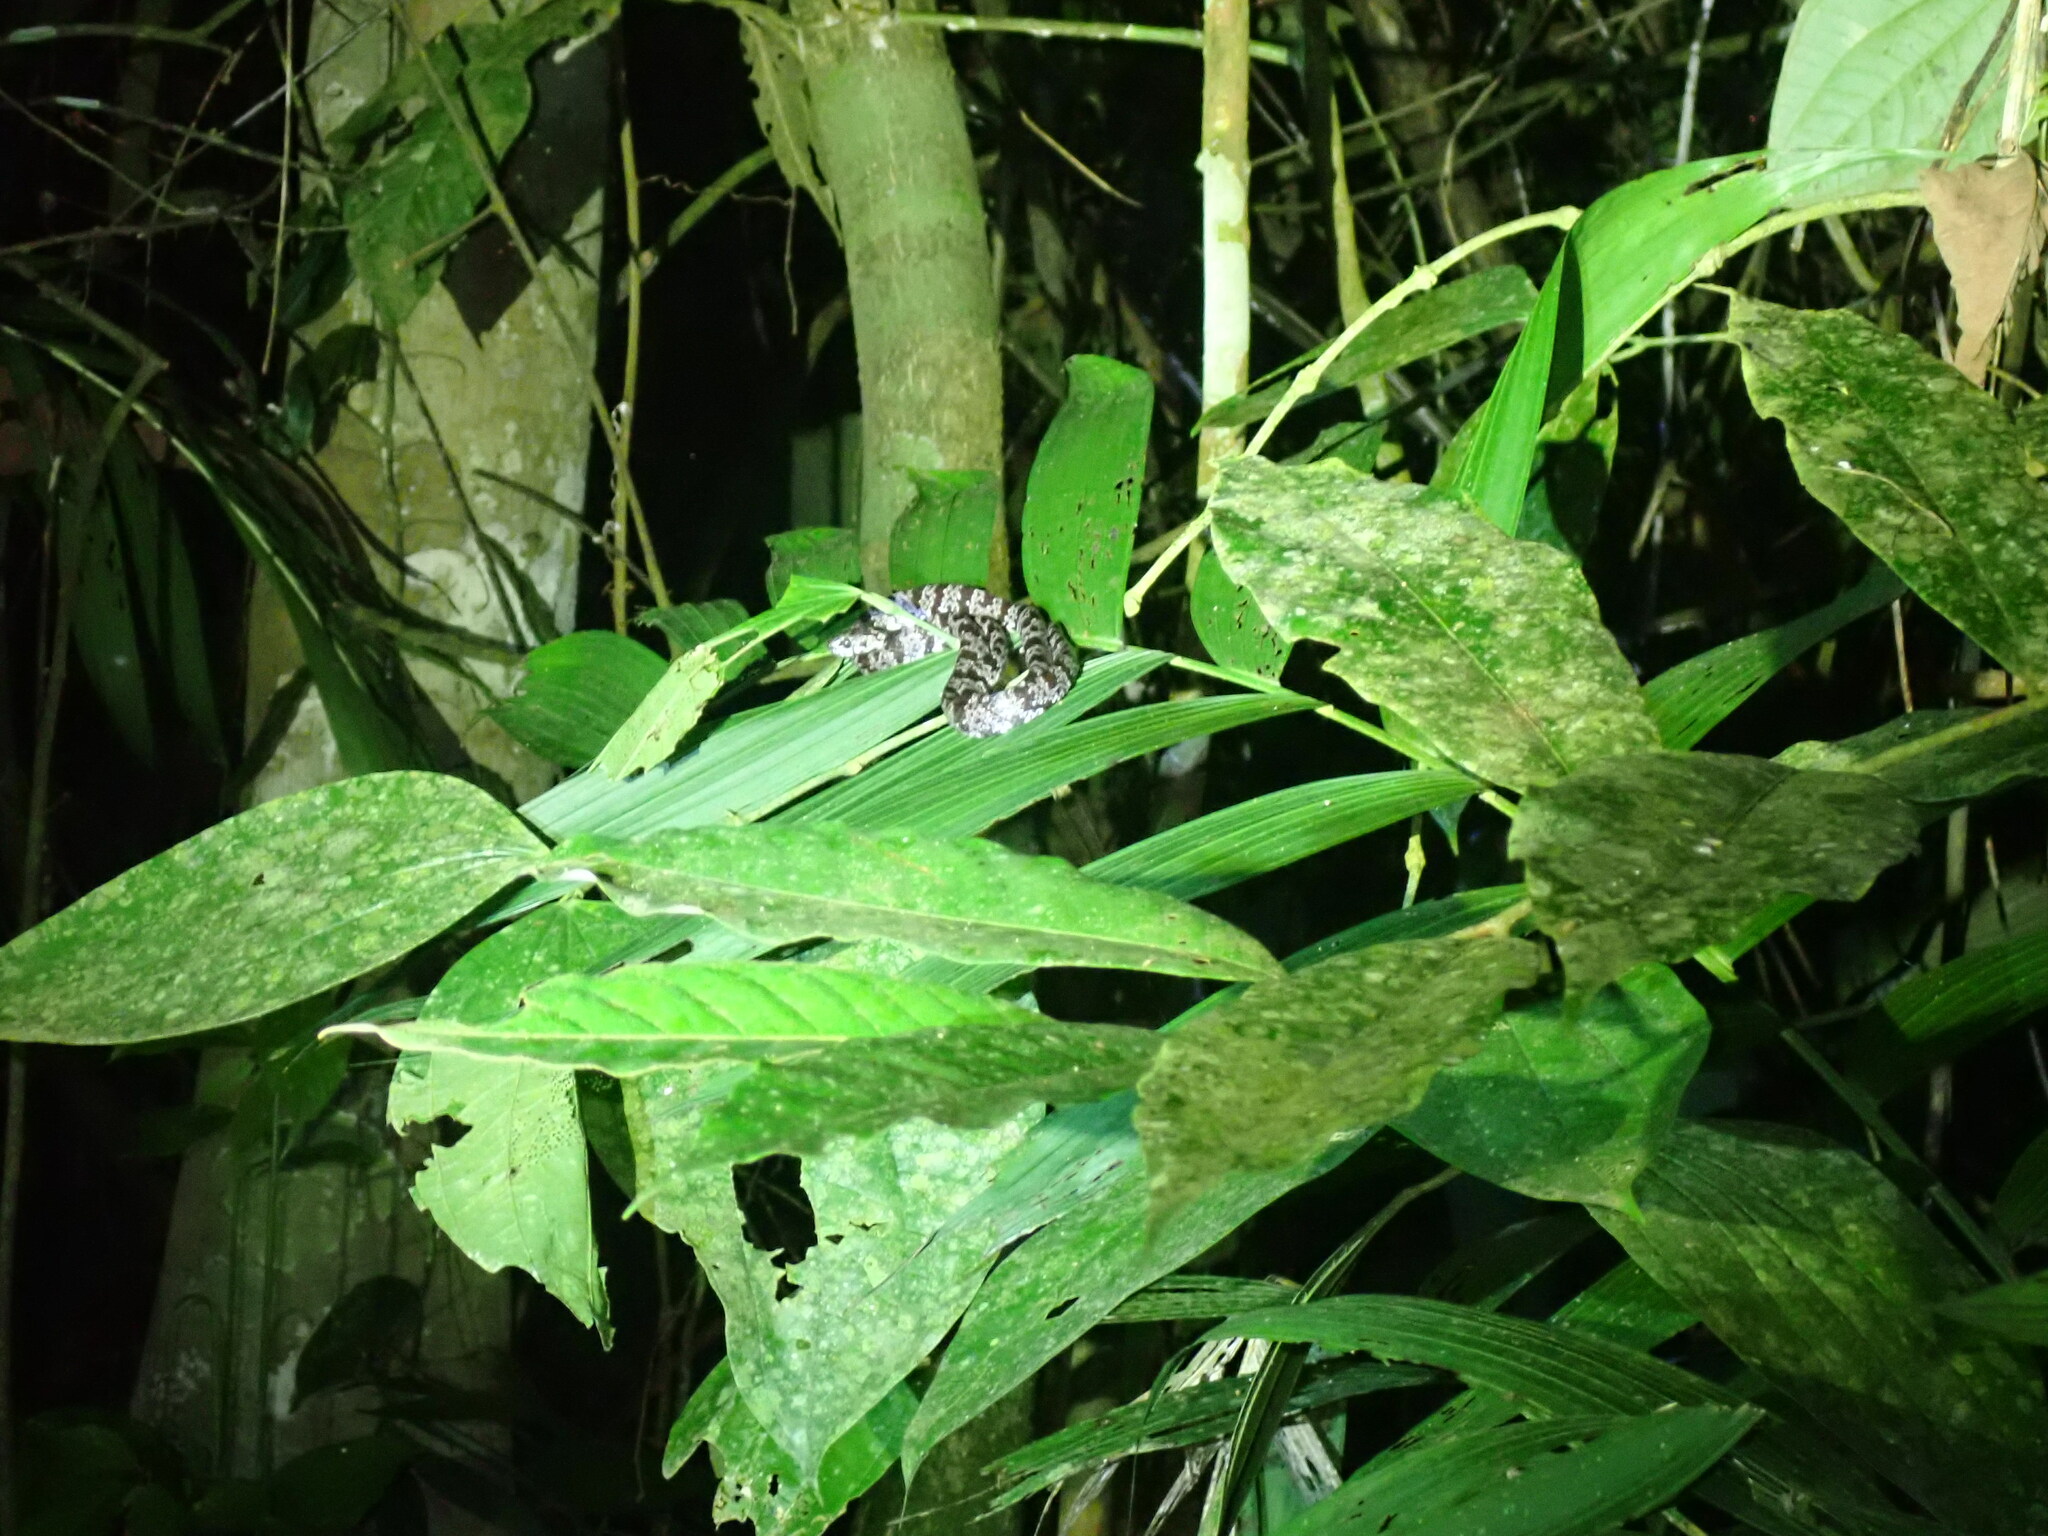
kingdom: Animalia
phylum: Chordata
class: Squamata
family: Colubridae
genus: Sibon
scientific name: Sibon nebulatus
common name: Cloudy snail-eating snake
